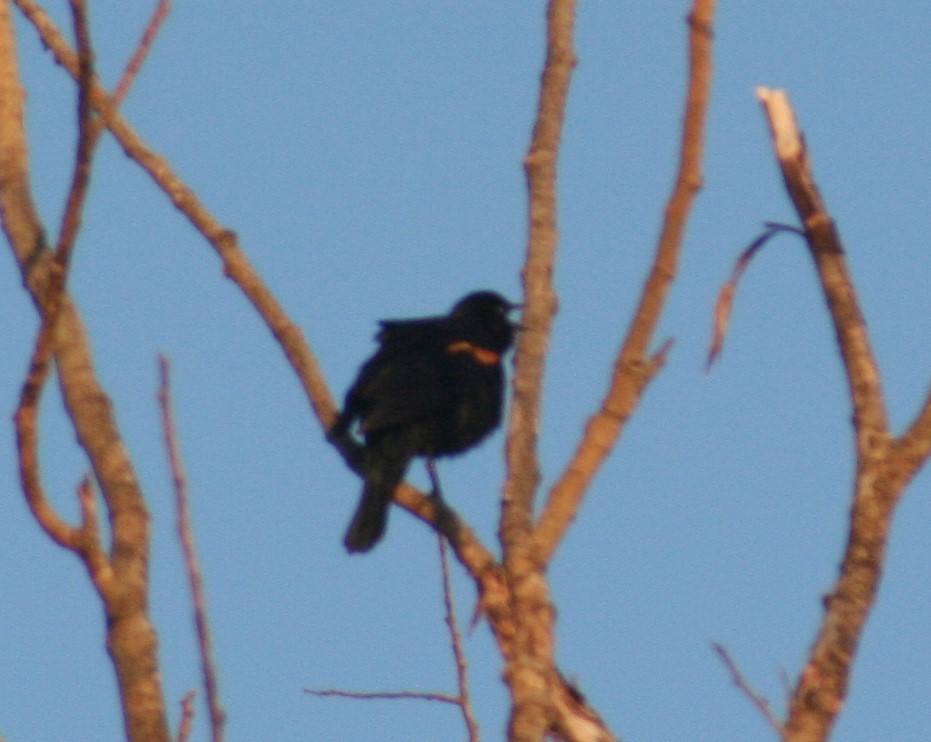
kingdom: Animalia
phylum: Chordata
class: Aves
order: Passeriformes
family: Icteridae
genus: Agelaius
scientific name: Agelaius phoeniceus
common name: Red-winged blackbird
